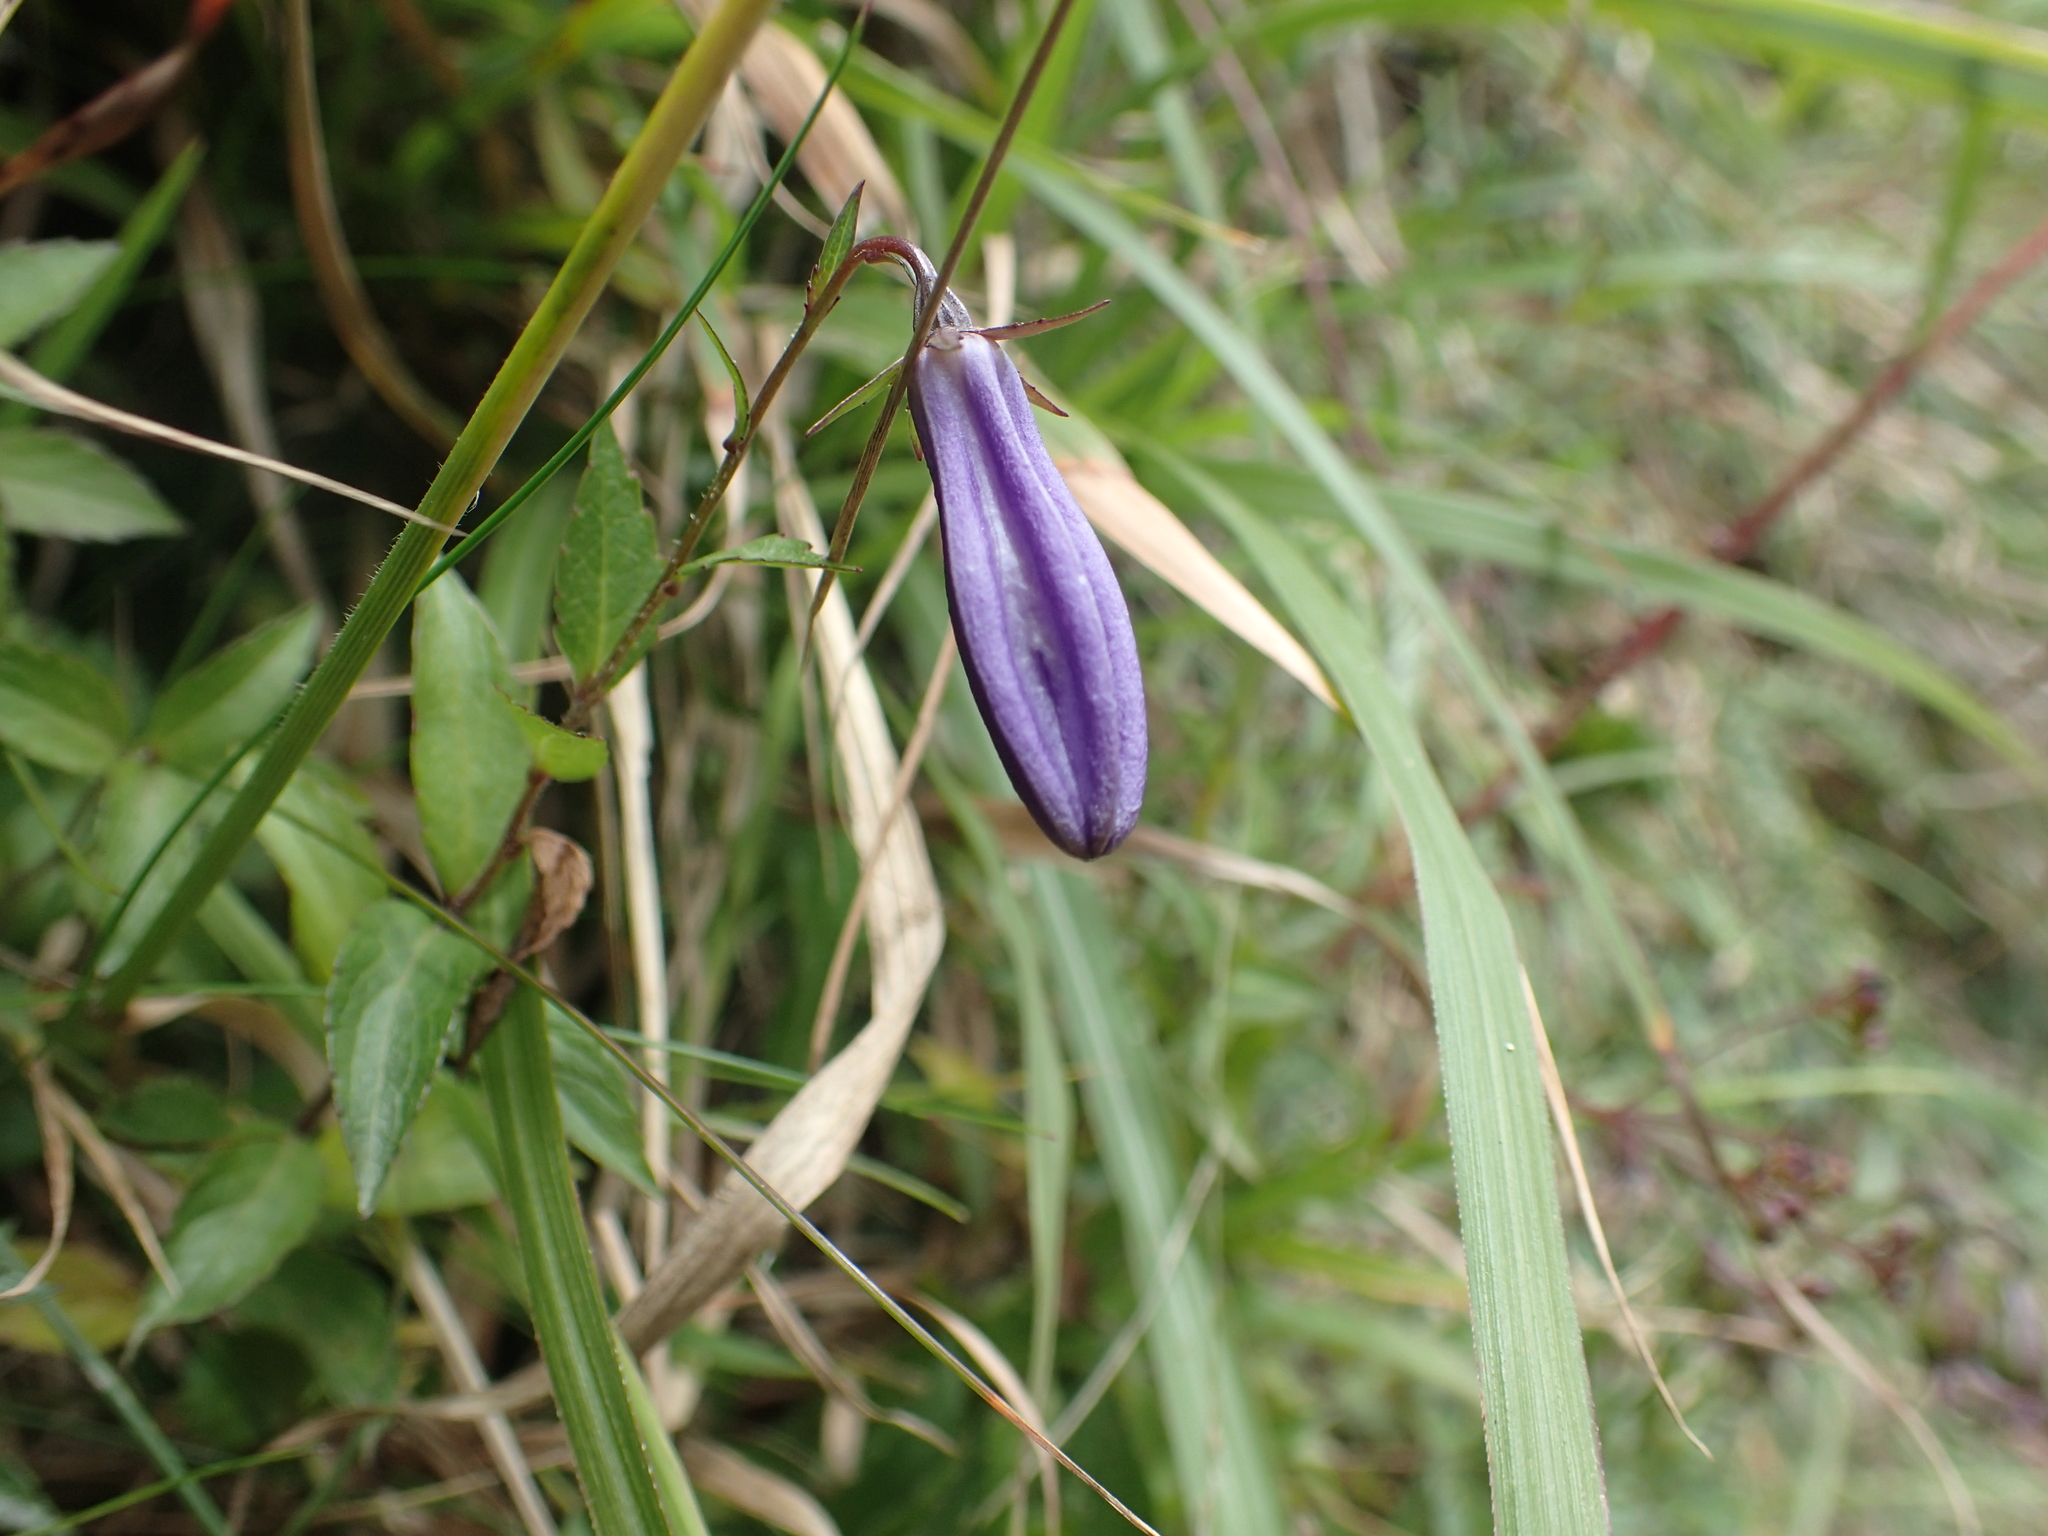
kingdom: Plantae
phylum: Tracheophyta
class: Magnoliopsida
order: Asterales
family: Campanulaceae
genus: Adenophora
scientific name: Adenophora morrisonensis
